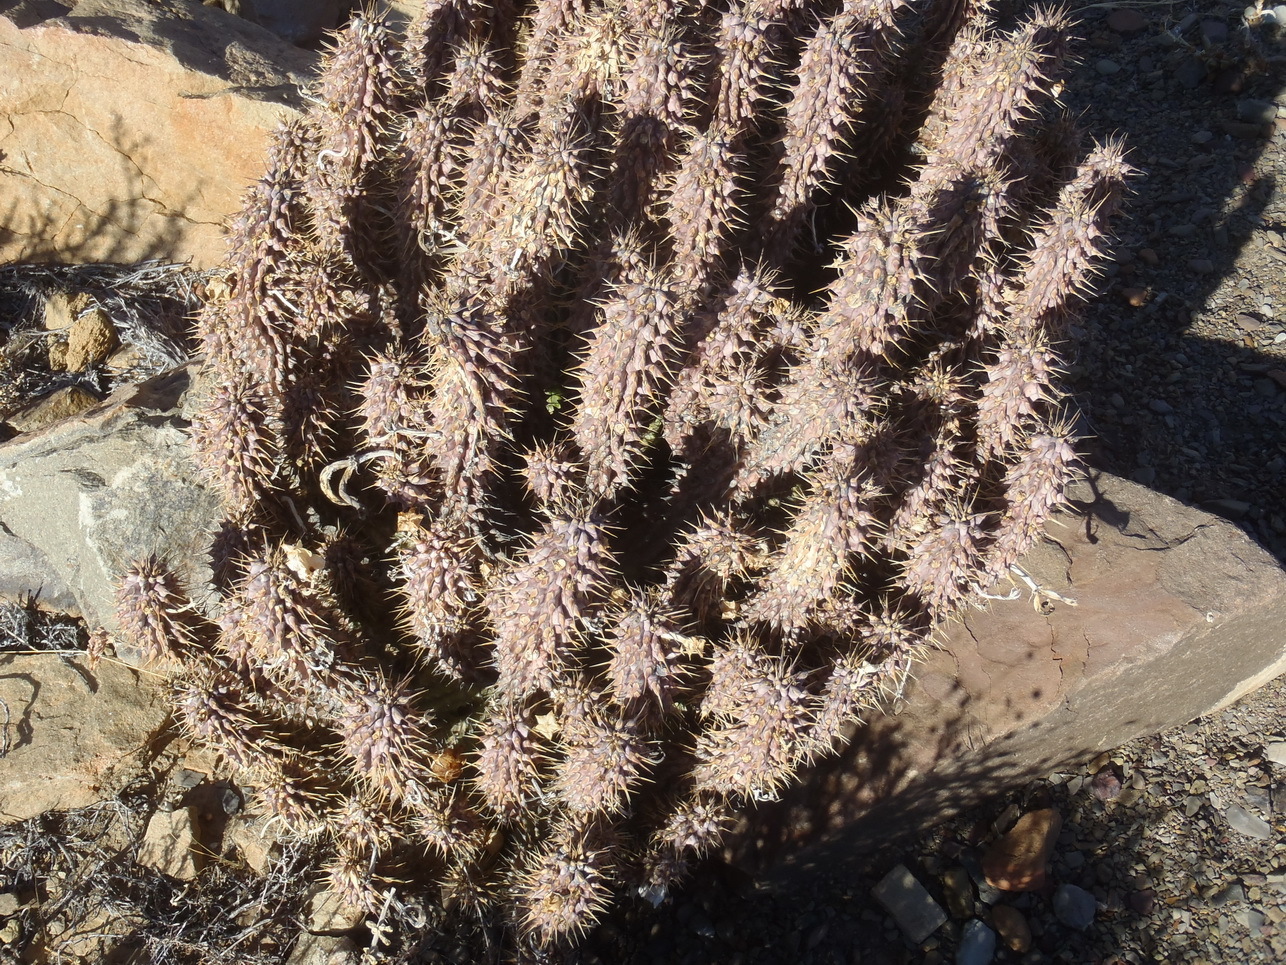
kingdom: Plantae
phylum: Tracheophyta
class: Magnoliopsida
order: Gentianales
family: Apocynaceae
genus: Hoodia
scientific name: Hoodia gordonii
